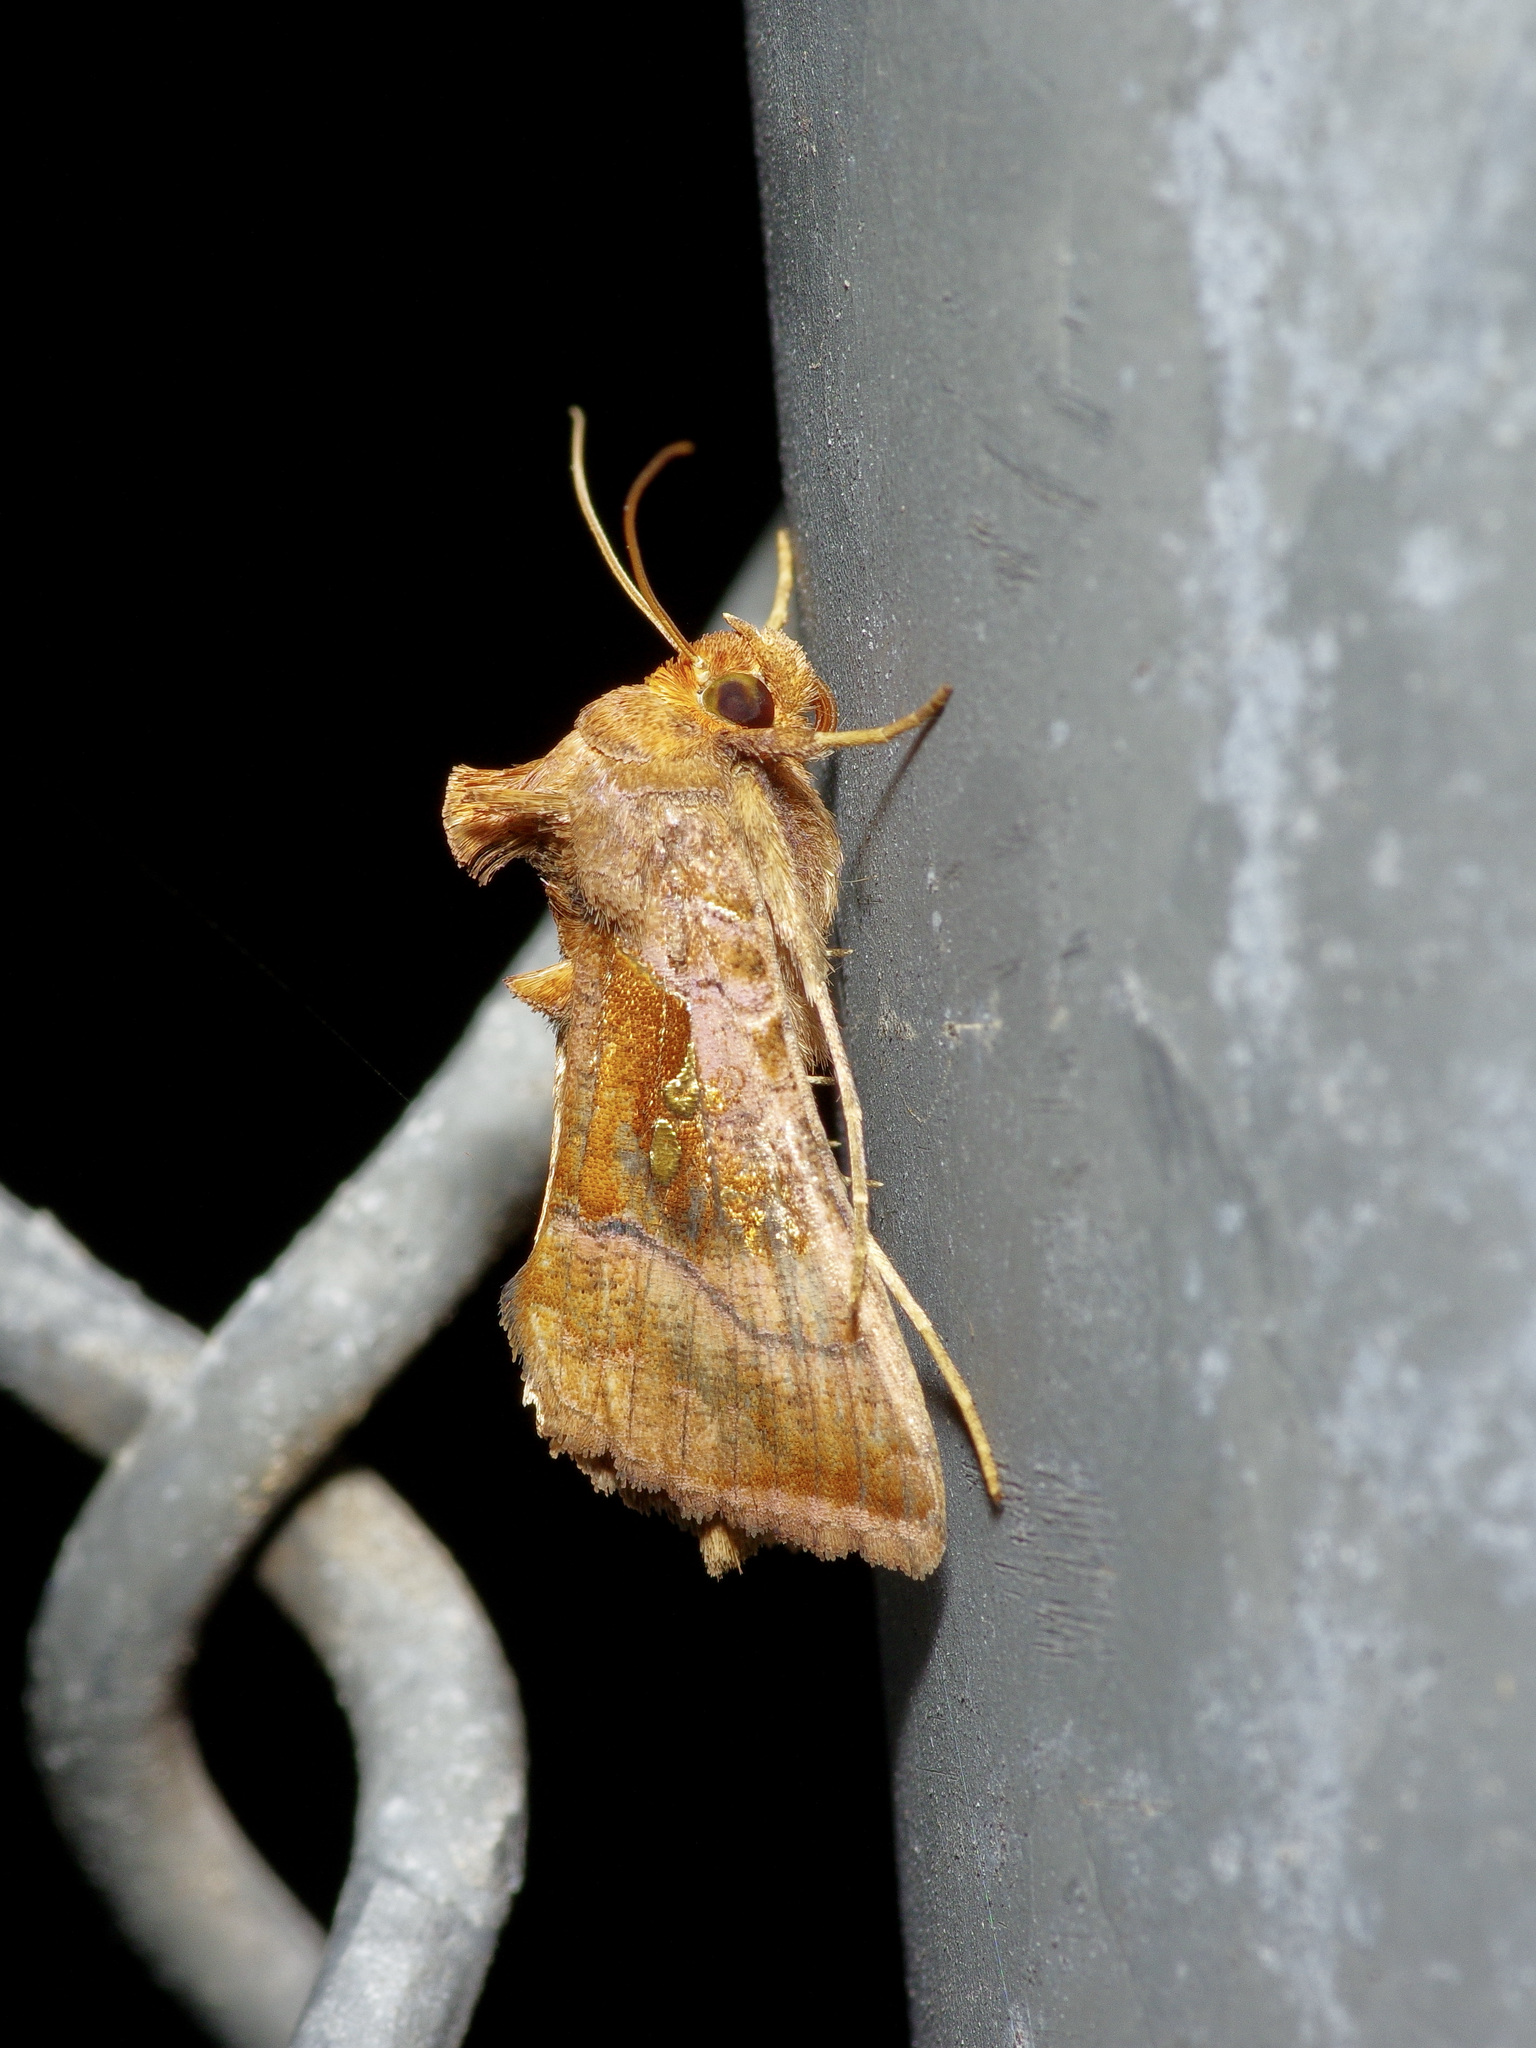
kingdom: Animalia
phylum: Arthropoda
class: Insecta
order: Lepidoptera
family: Noctuidae
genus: Enigmogramma
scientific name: Enigmogramma basigera
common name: Pink-washed looper moth
